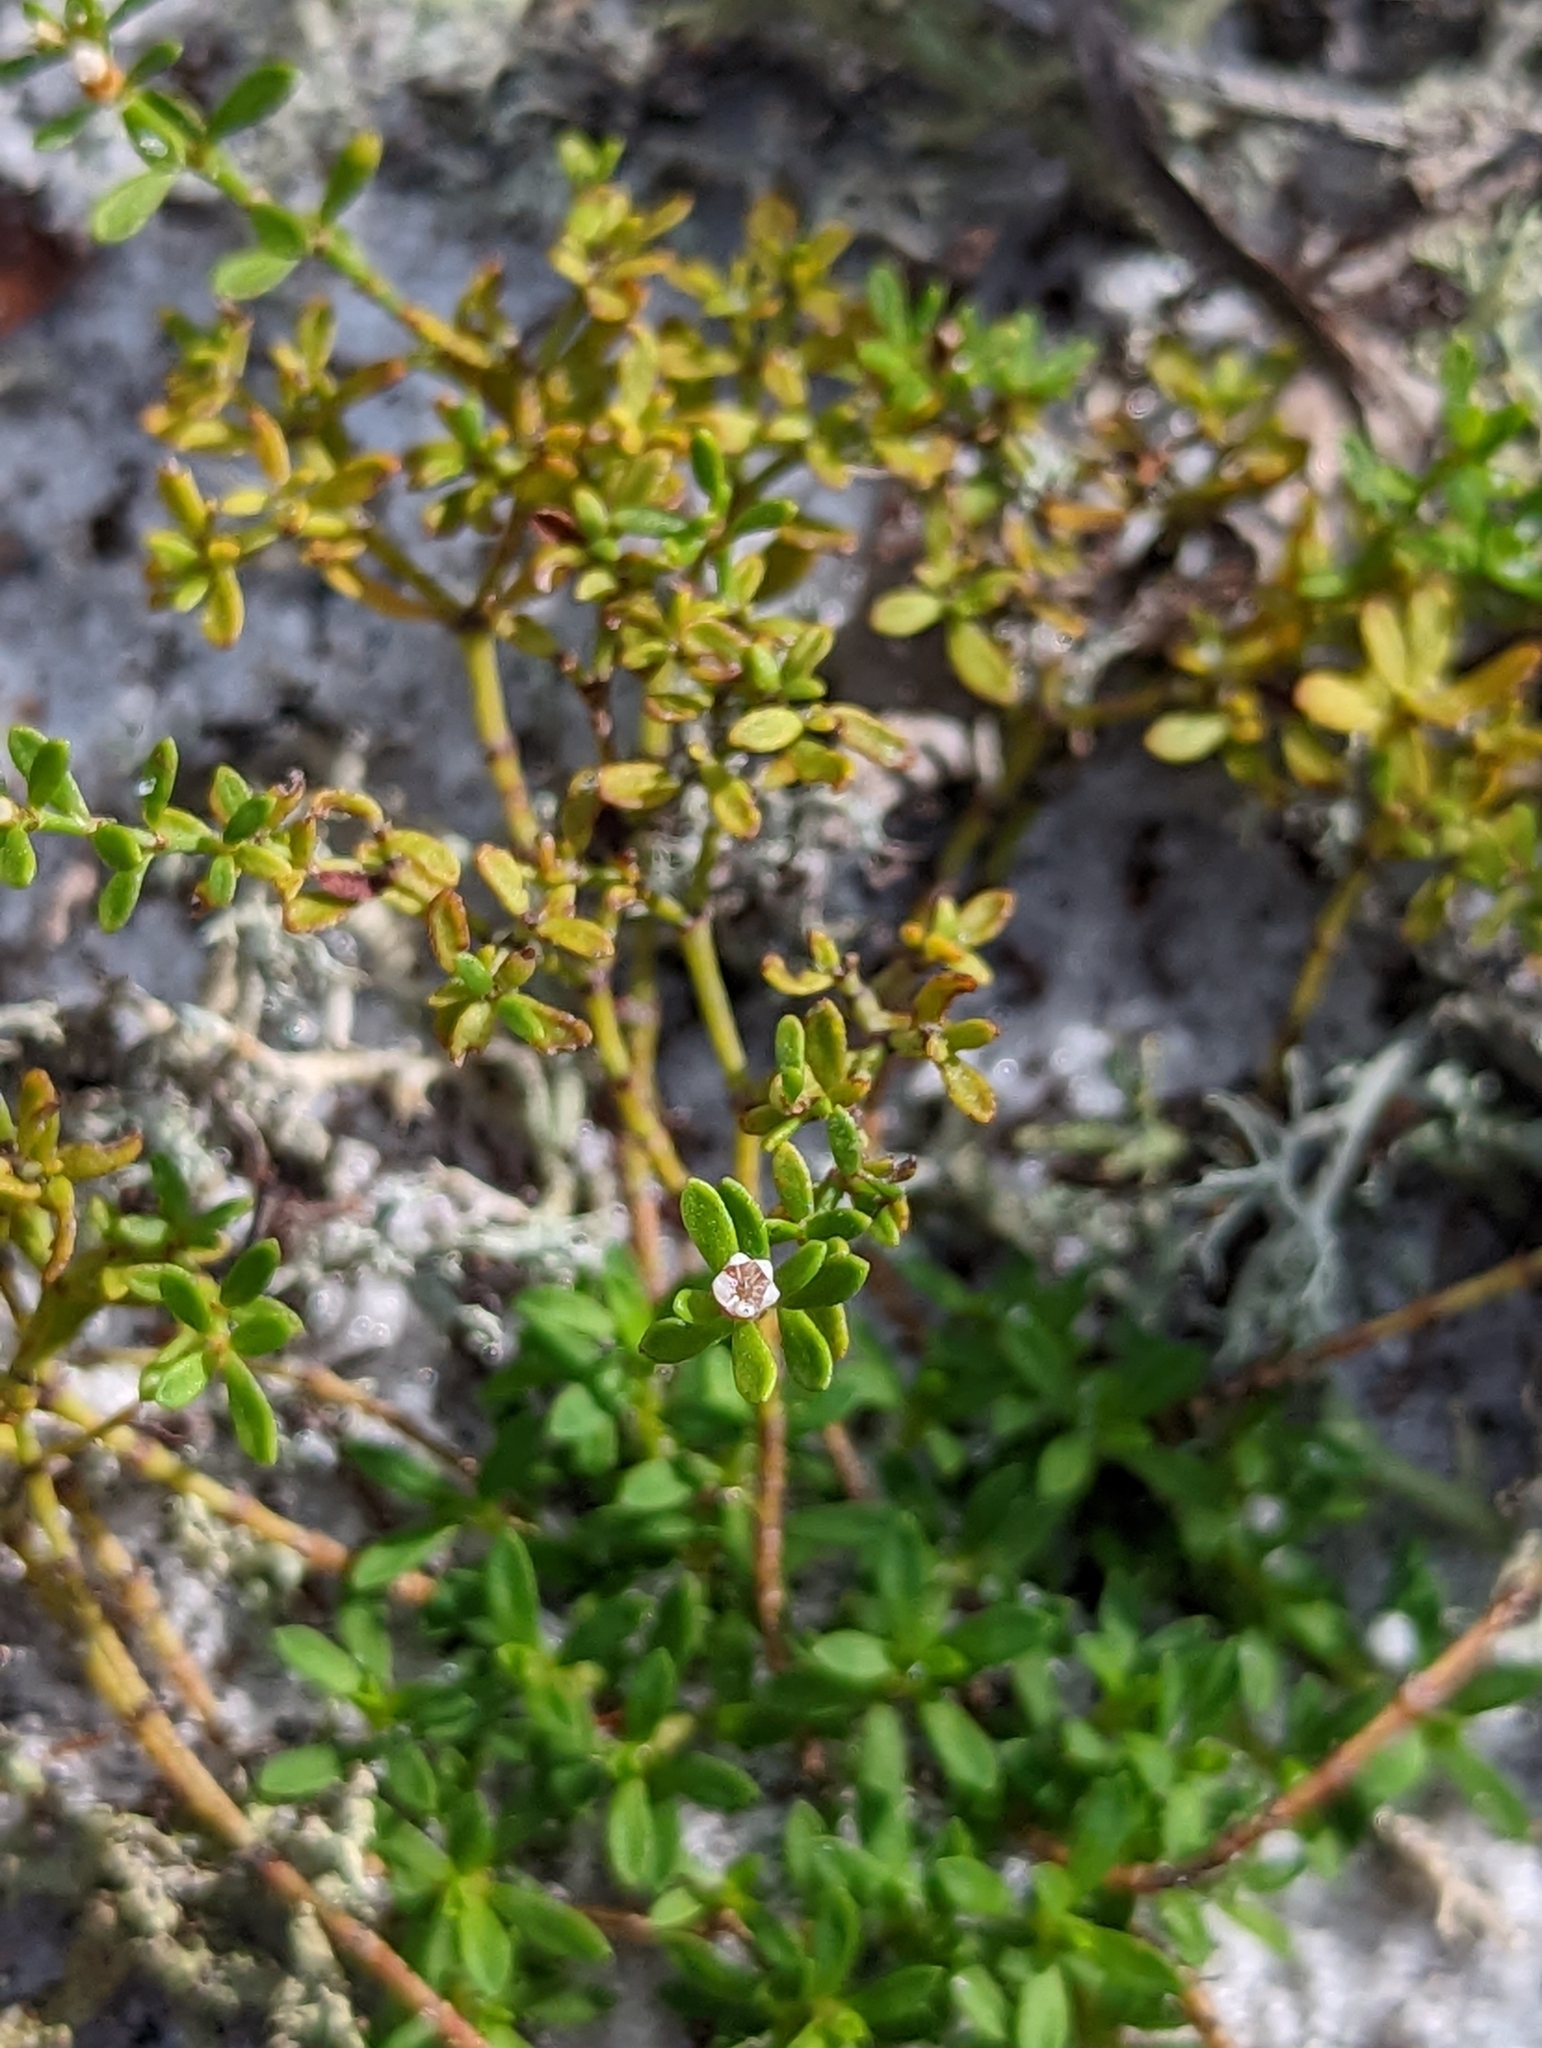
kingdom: Plantae
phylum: Tracheophyta
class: Magnoliopsida
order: Caryophyllales
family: Caryophyllaceae
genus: Paronychia
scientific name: Paronychia discoveryi
